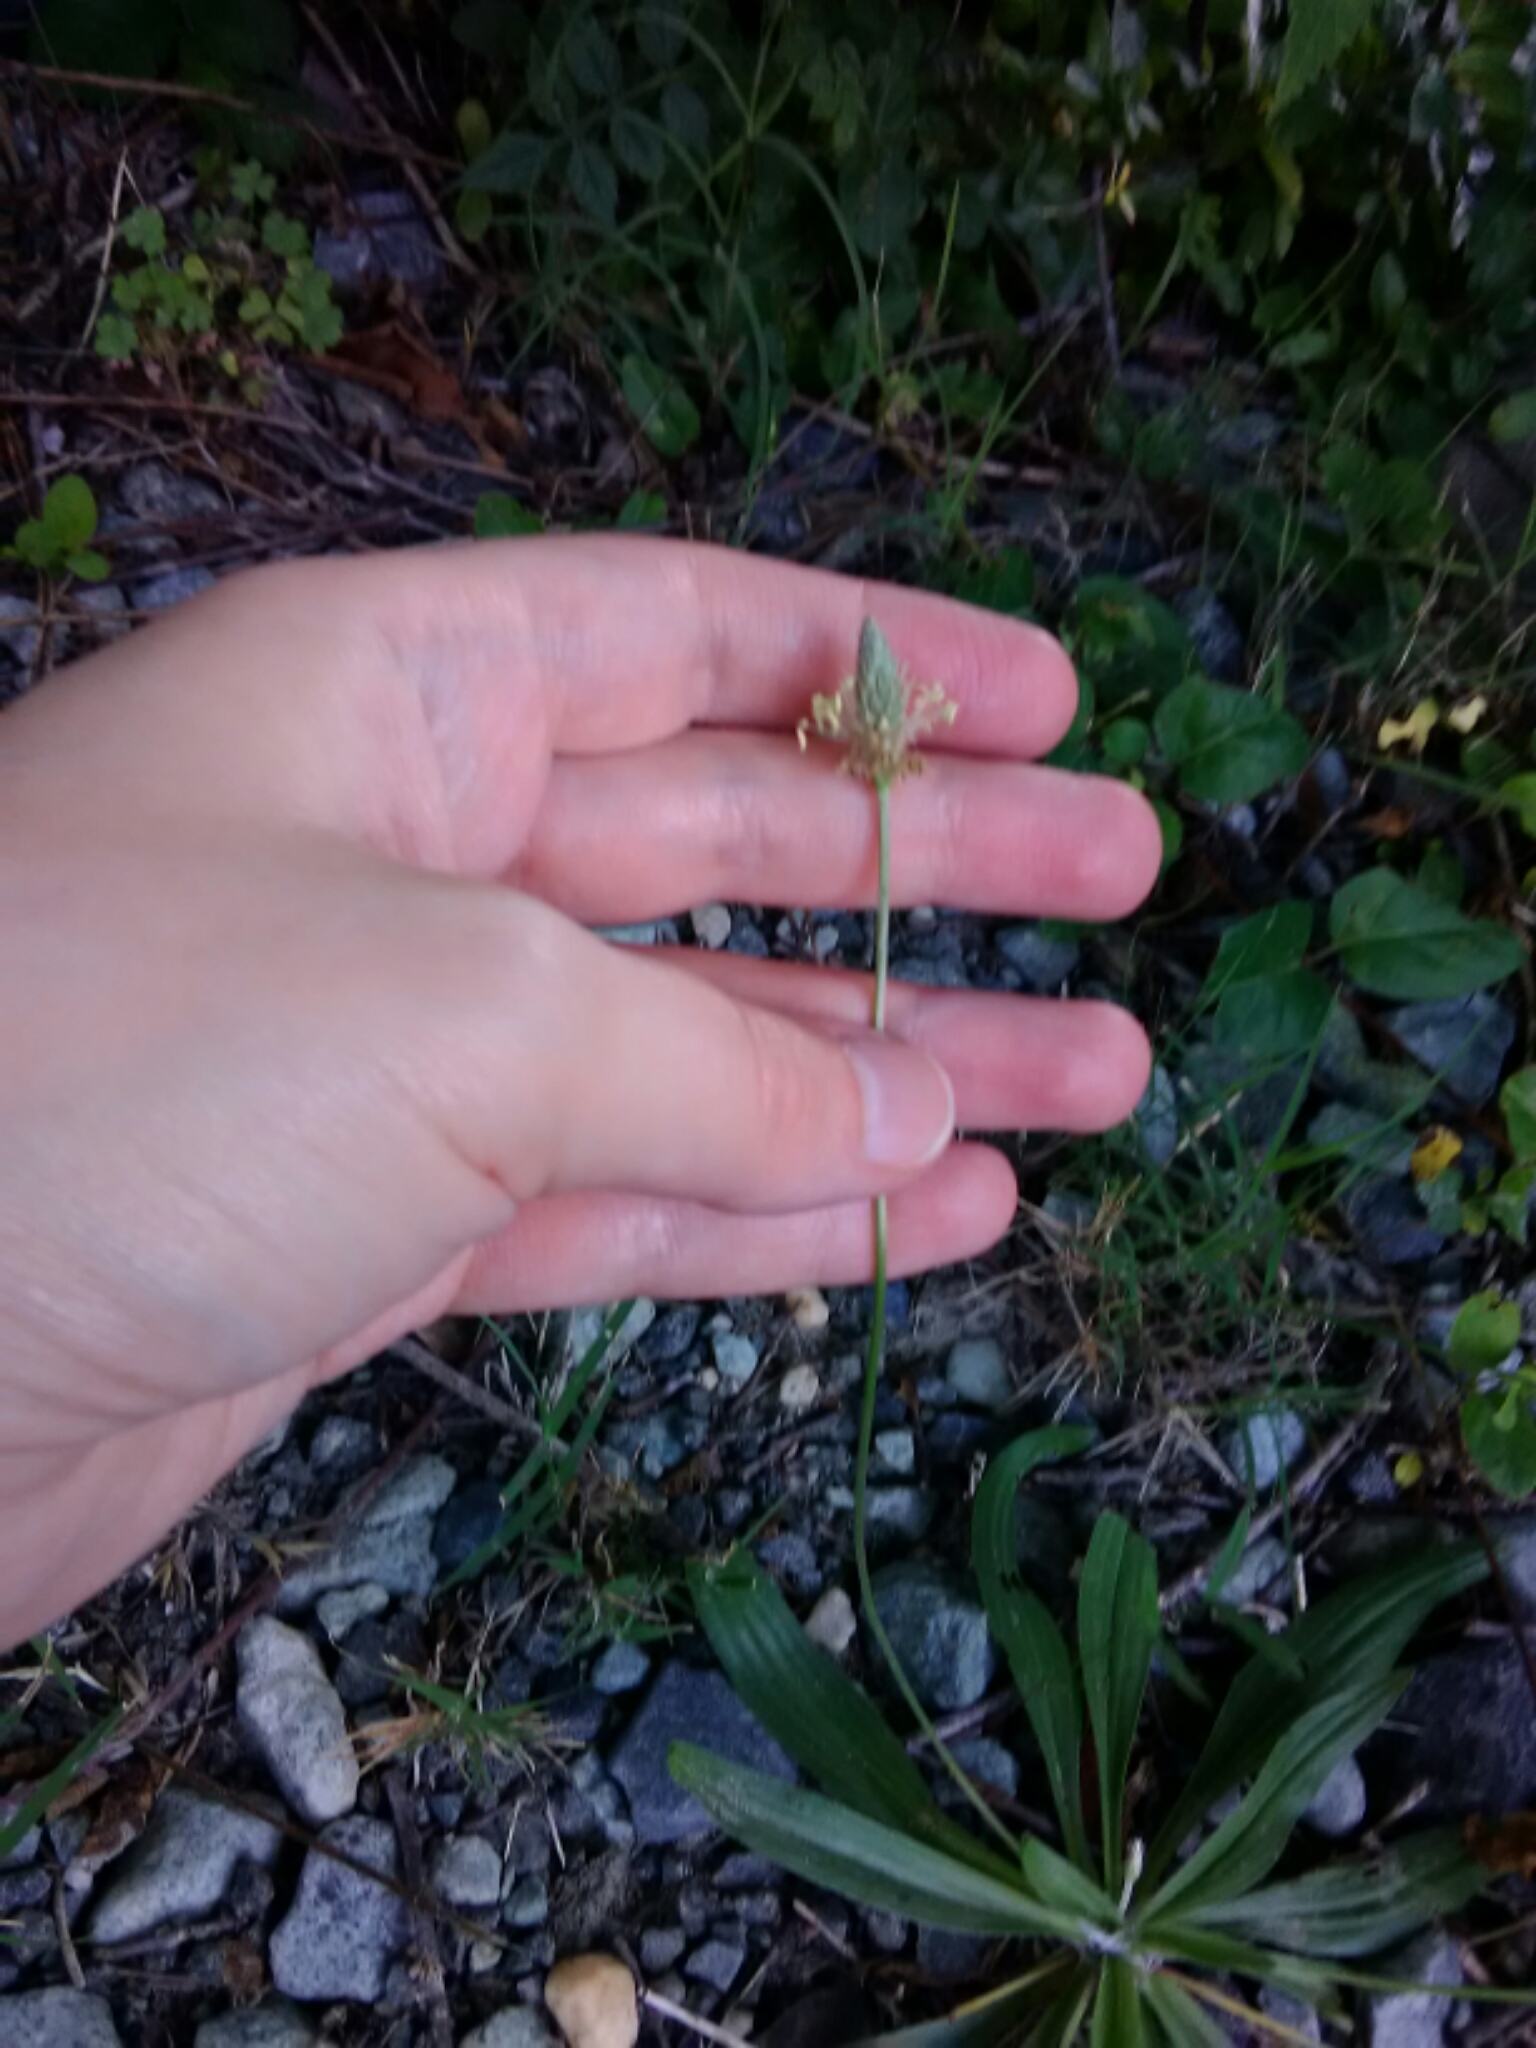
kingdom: Plantae
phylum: Tracheophyta
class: Magnoliopsida
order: Lamiales
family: Plantaginaceae
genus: Plantago
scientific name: Plantago lanceolata
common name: Ribwort plantain
